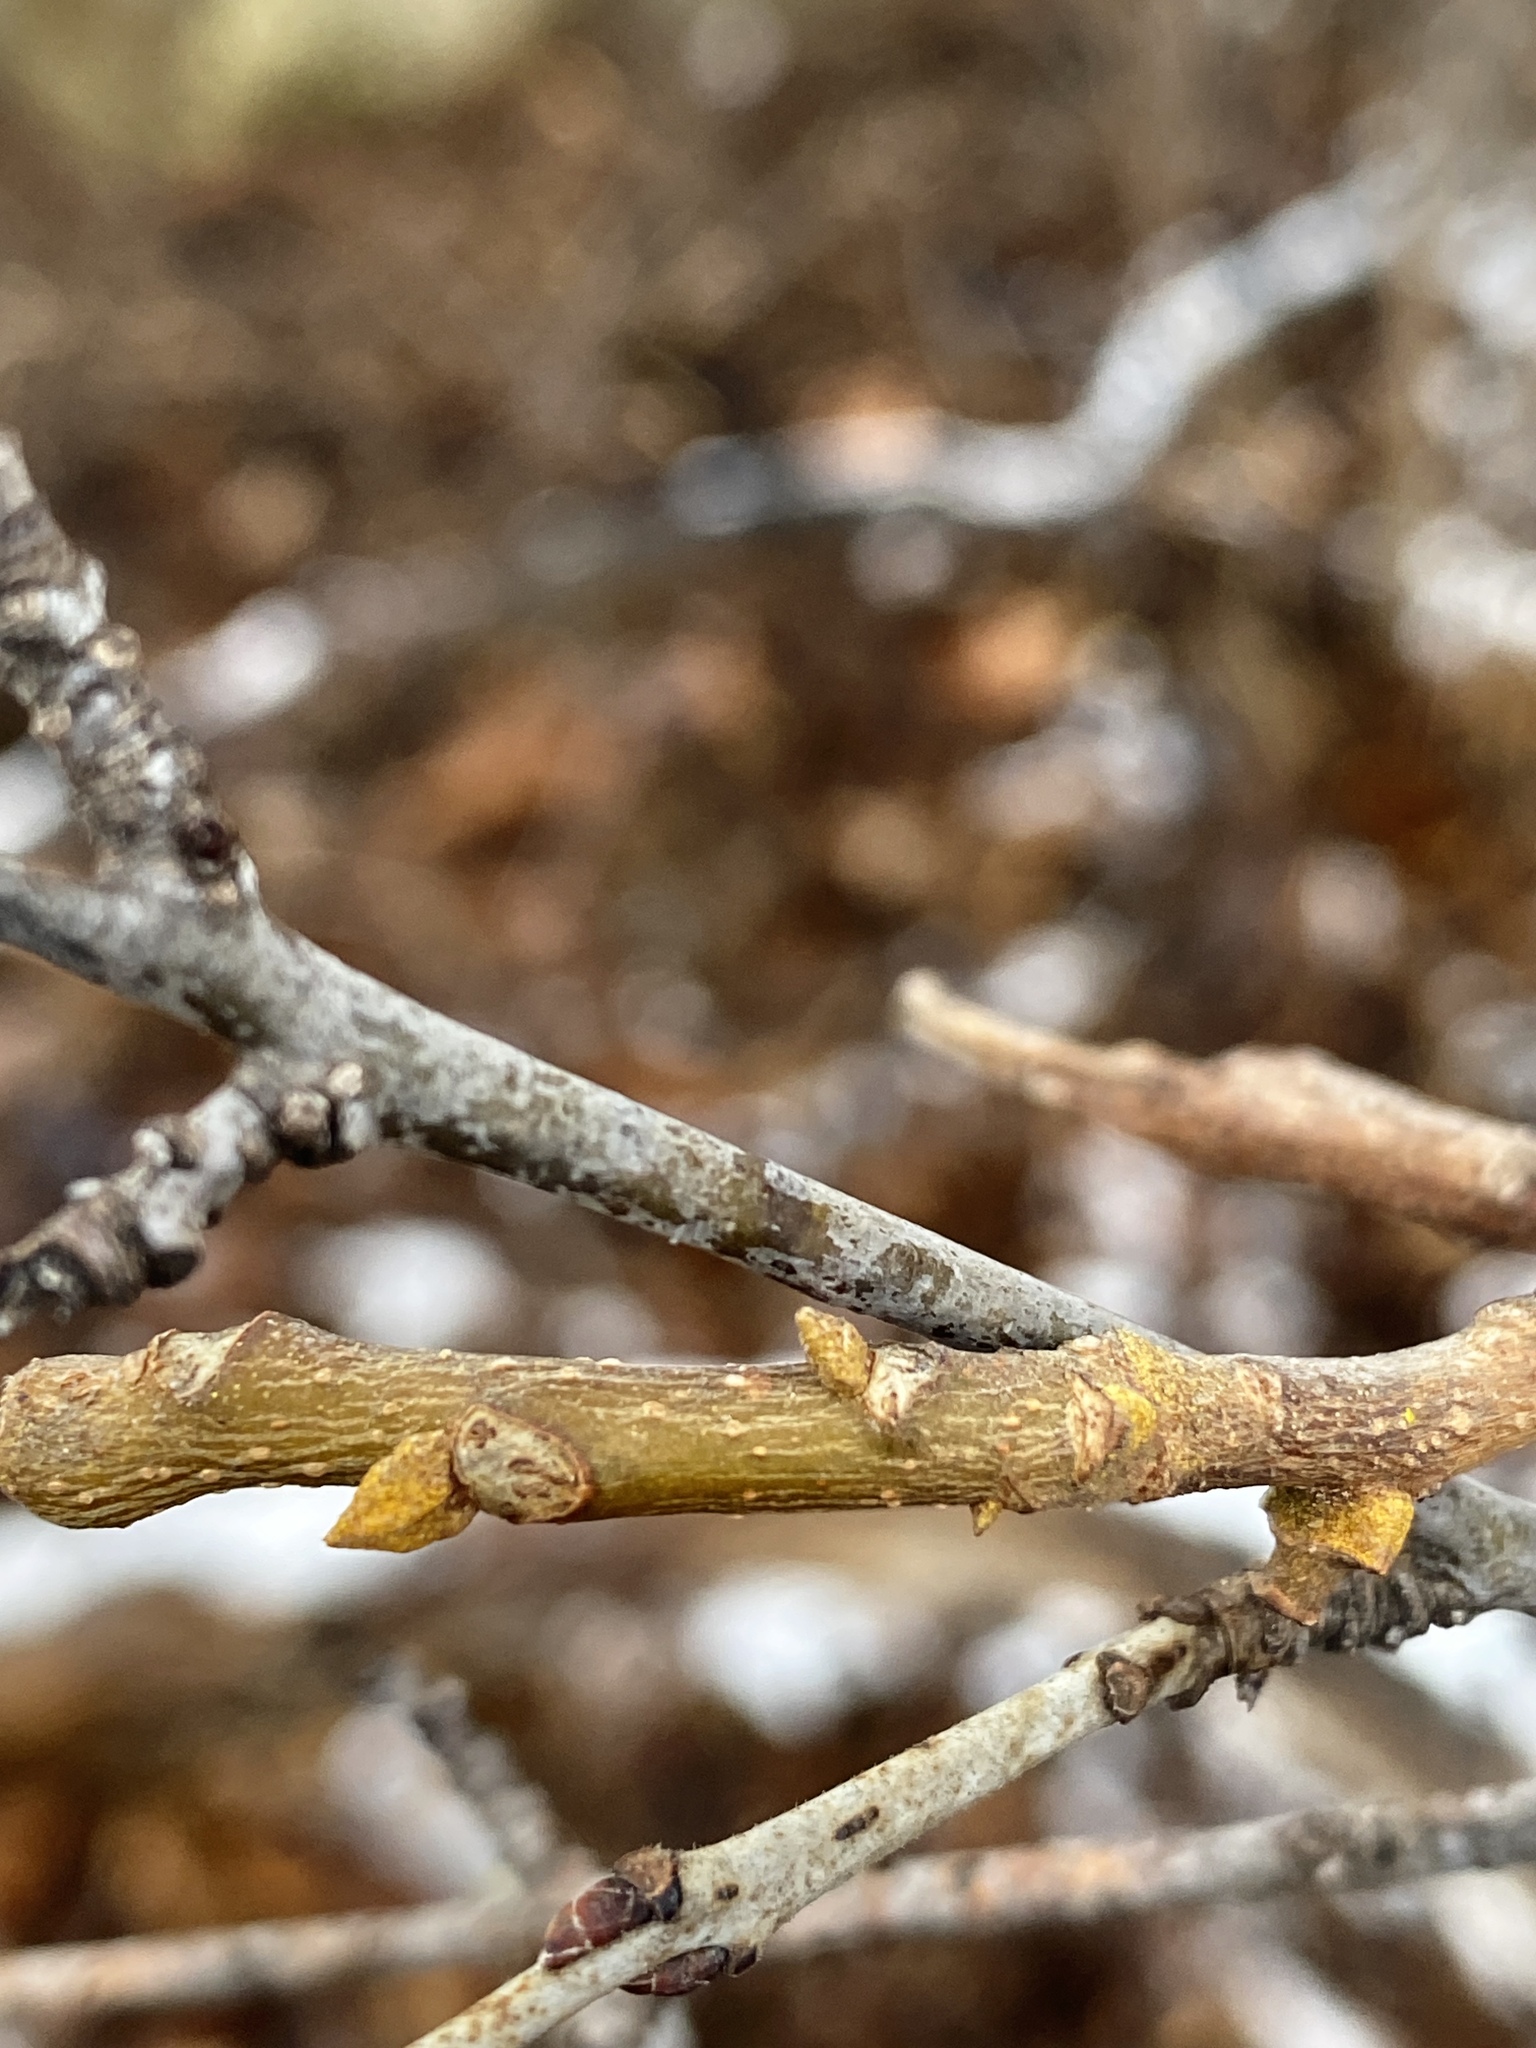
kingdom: Plantae
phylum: Tracheophyta
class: Magnoliopsida
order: Fagales
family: Juglandaceae
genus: Carya
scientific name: Carya cordiformis
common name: Bitternut hickory
